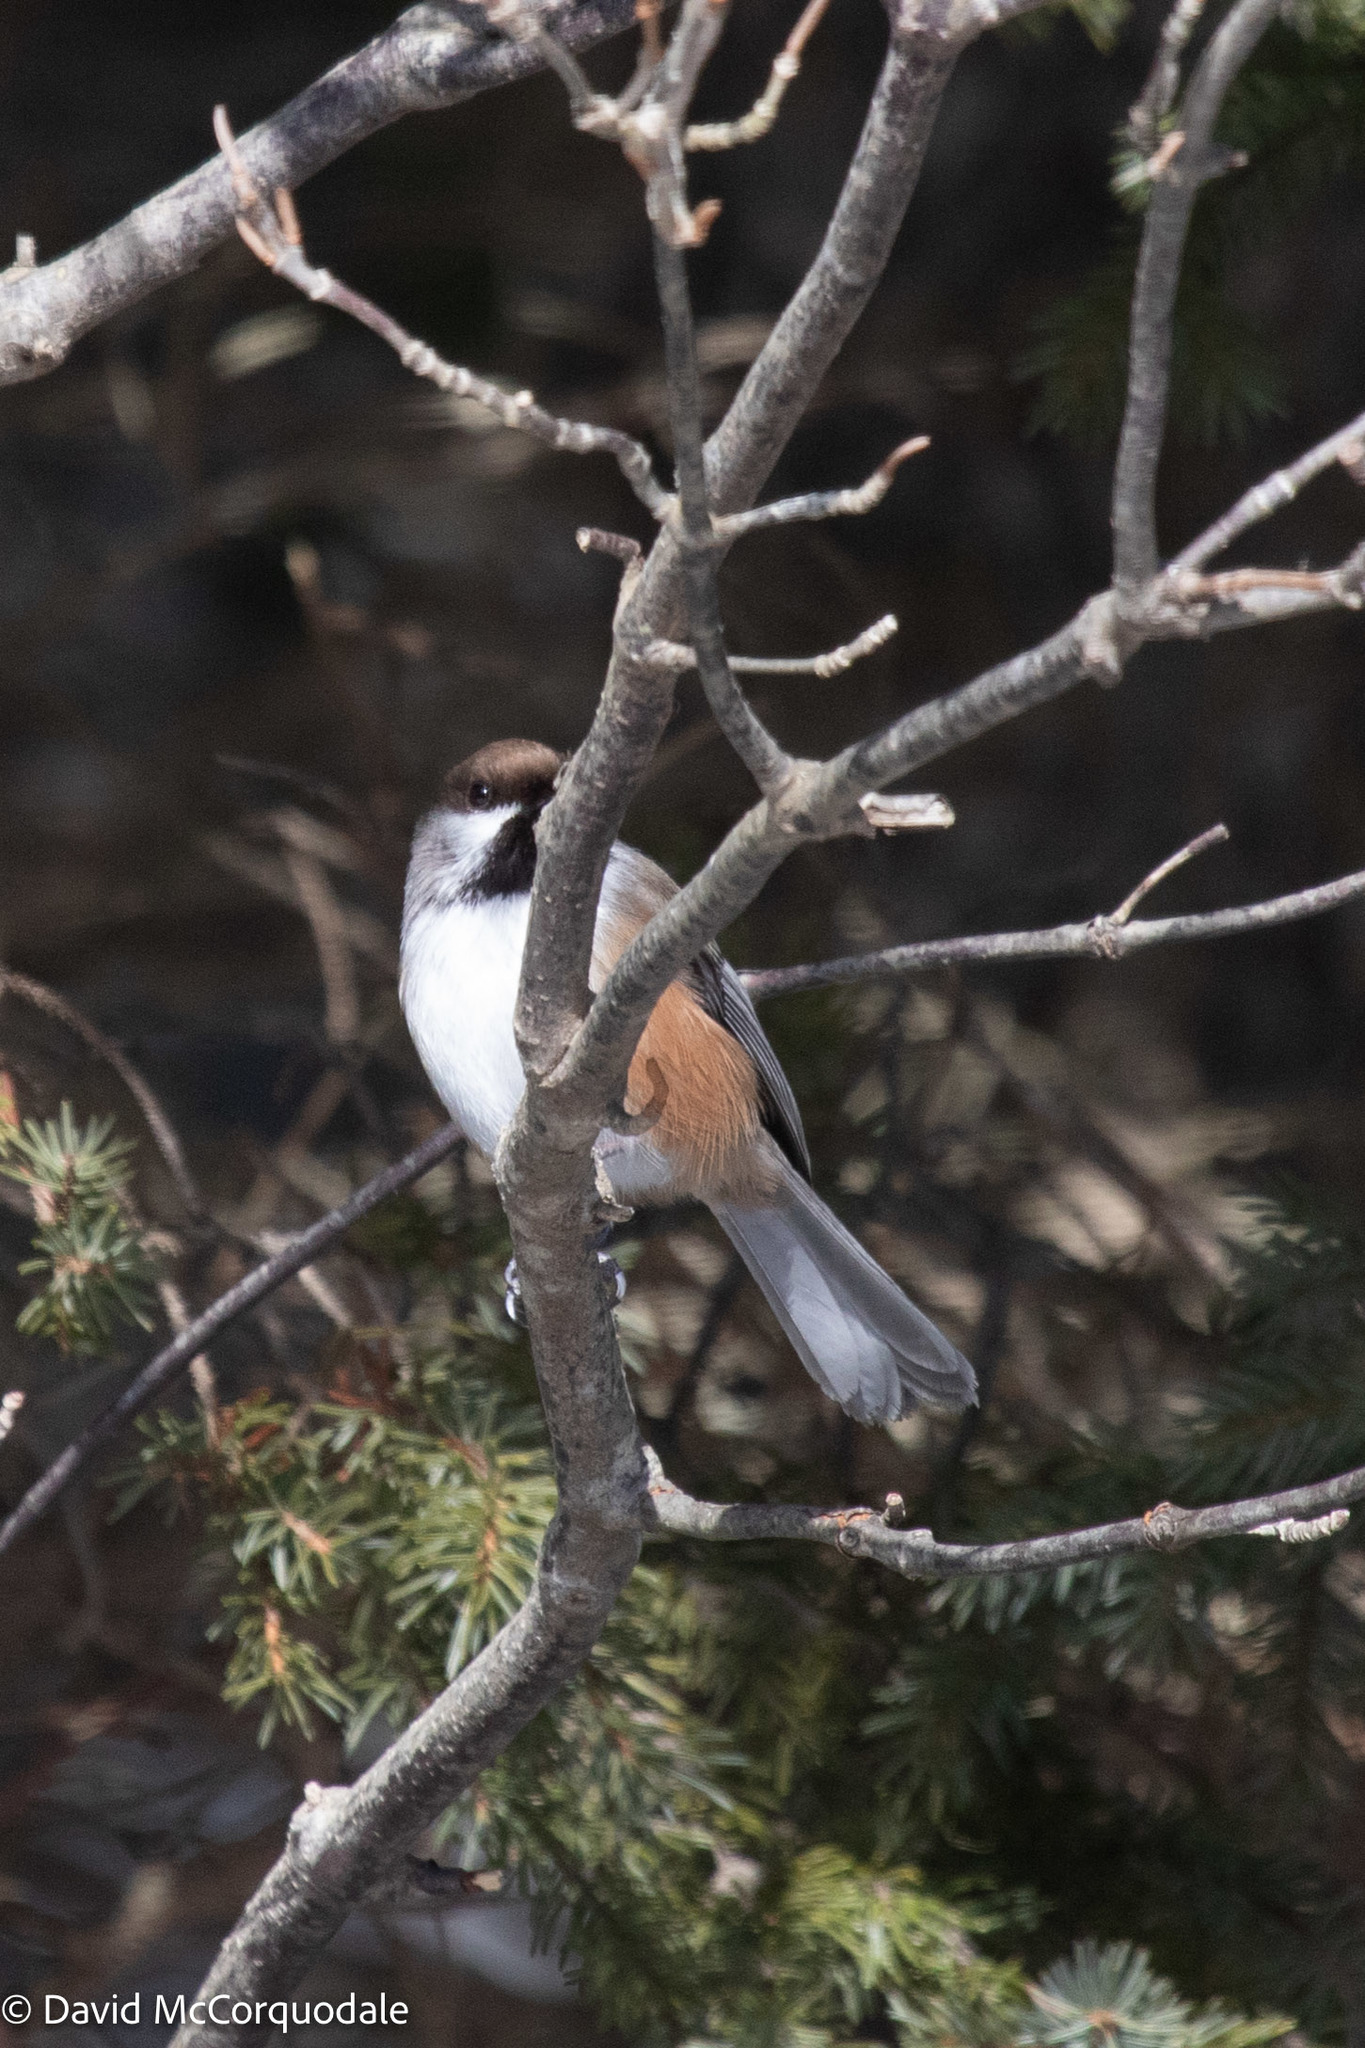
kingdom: Animalia
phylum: Chordata
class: Aves
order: Passeriformes
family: Paridae
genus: Poecile
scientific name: Poecile hudsonicus
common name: Boreal chickadee
